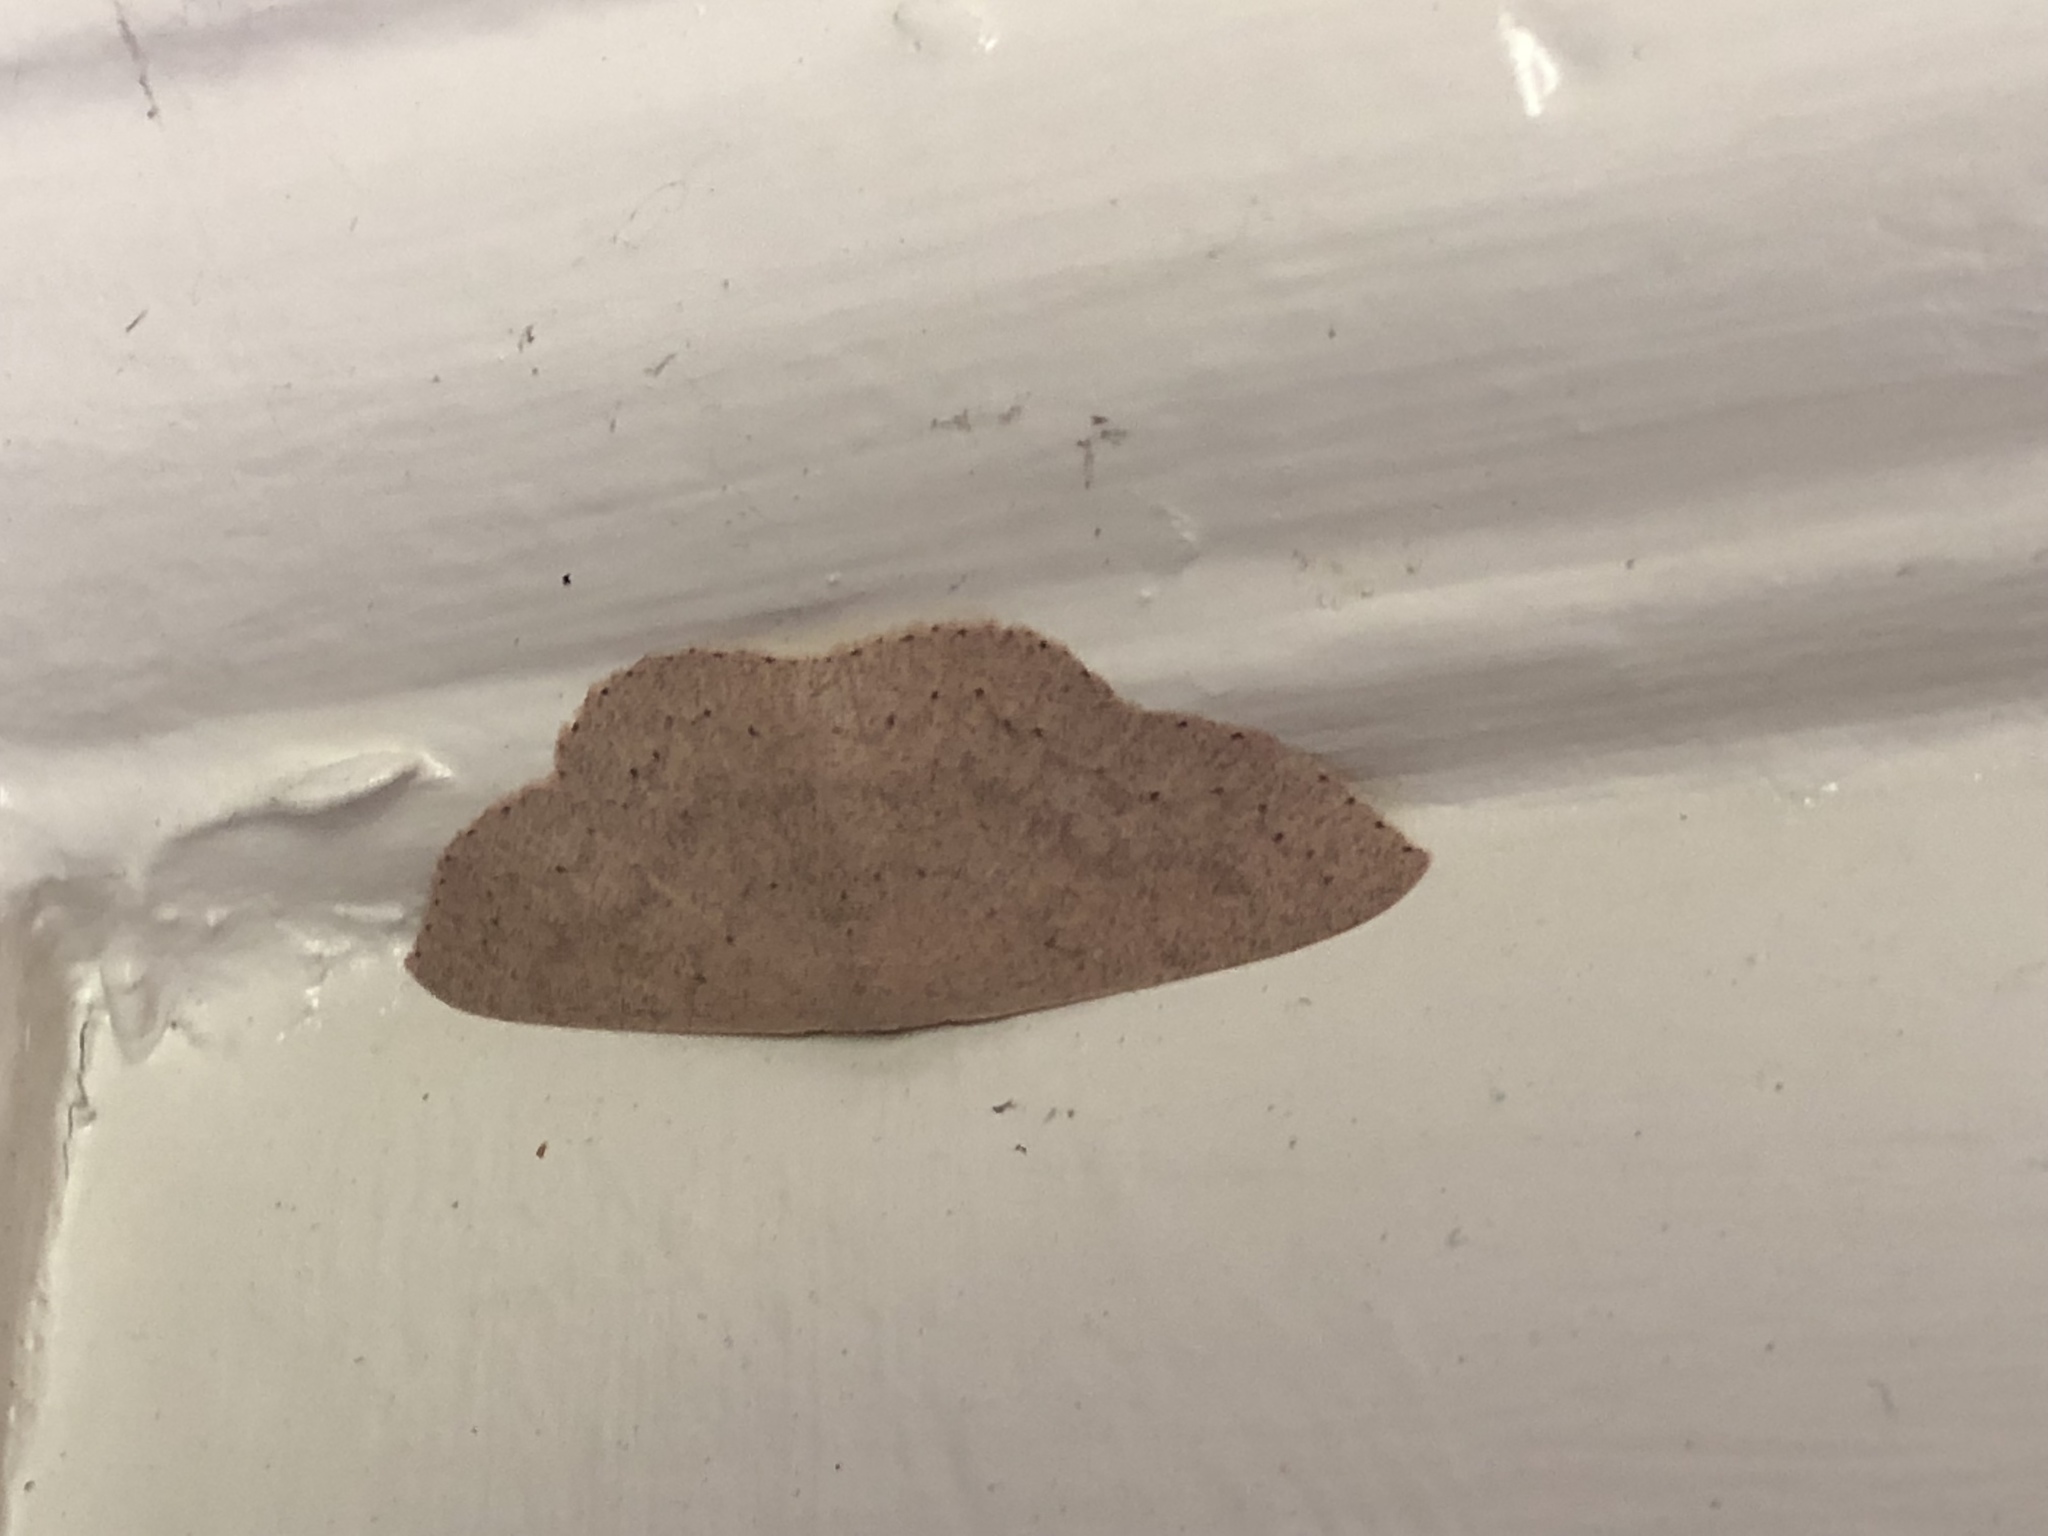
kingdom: Animalia
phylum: Arthropoda
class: Insecta
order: Lepidoptera
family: Geometridae
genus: Cyclophora
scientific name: Cyclophora obstataria
